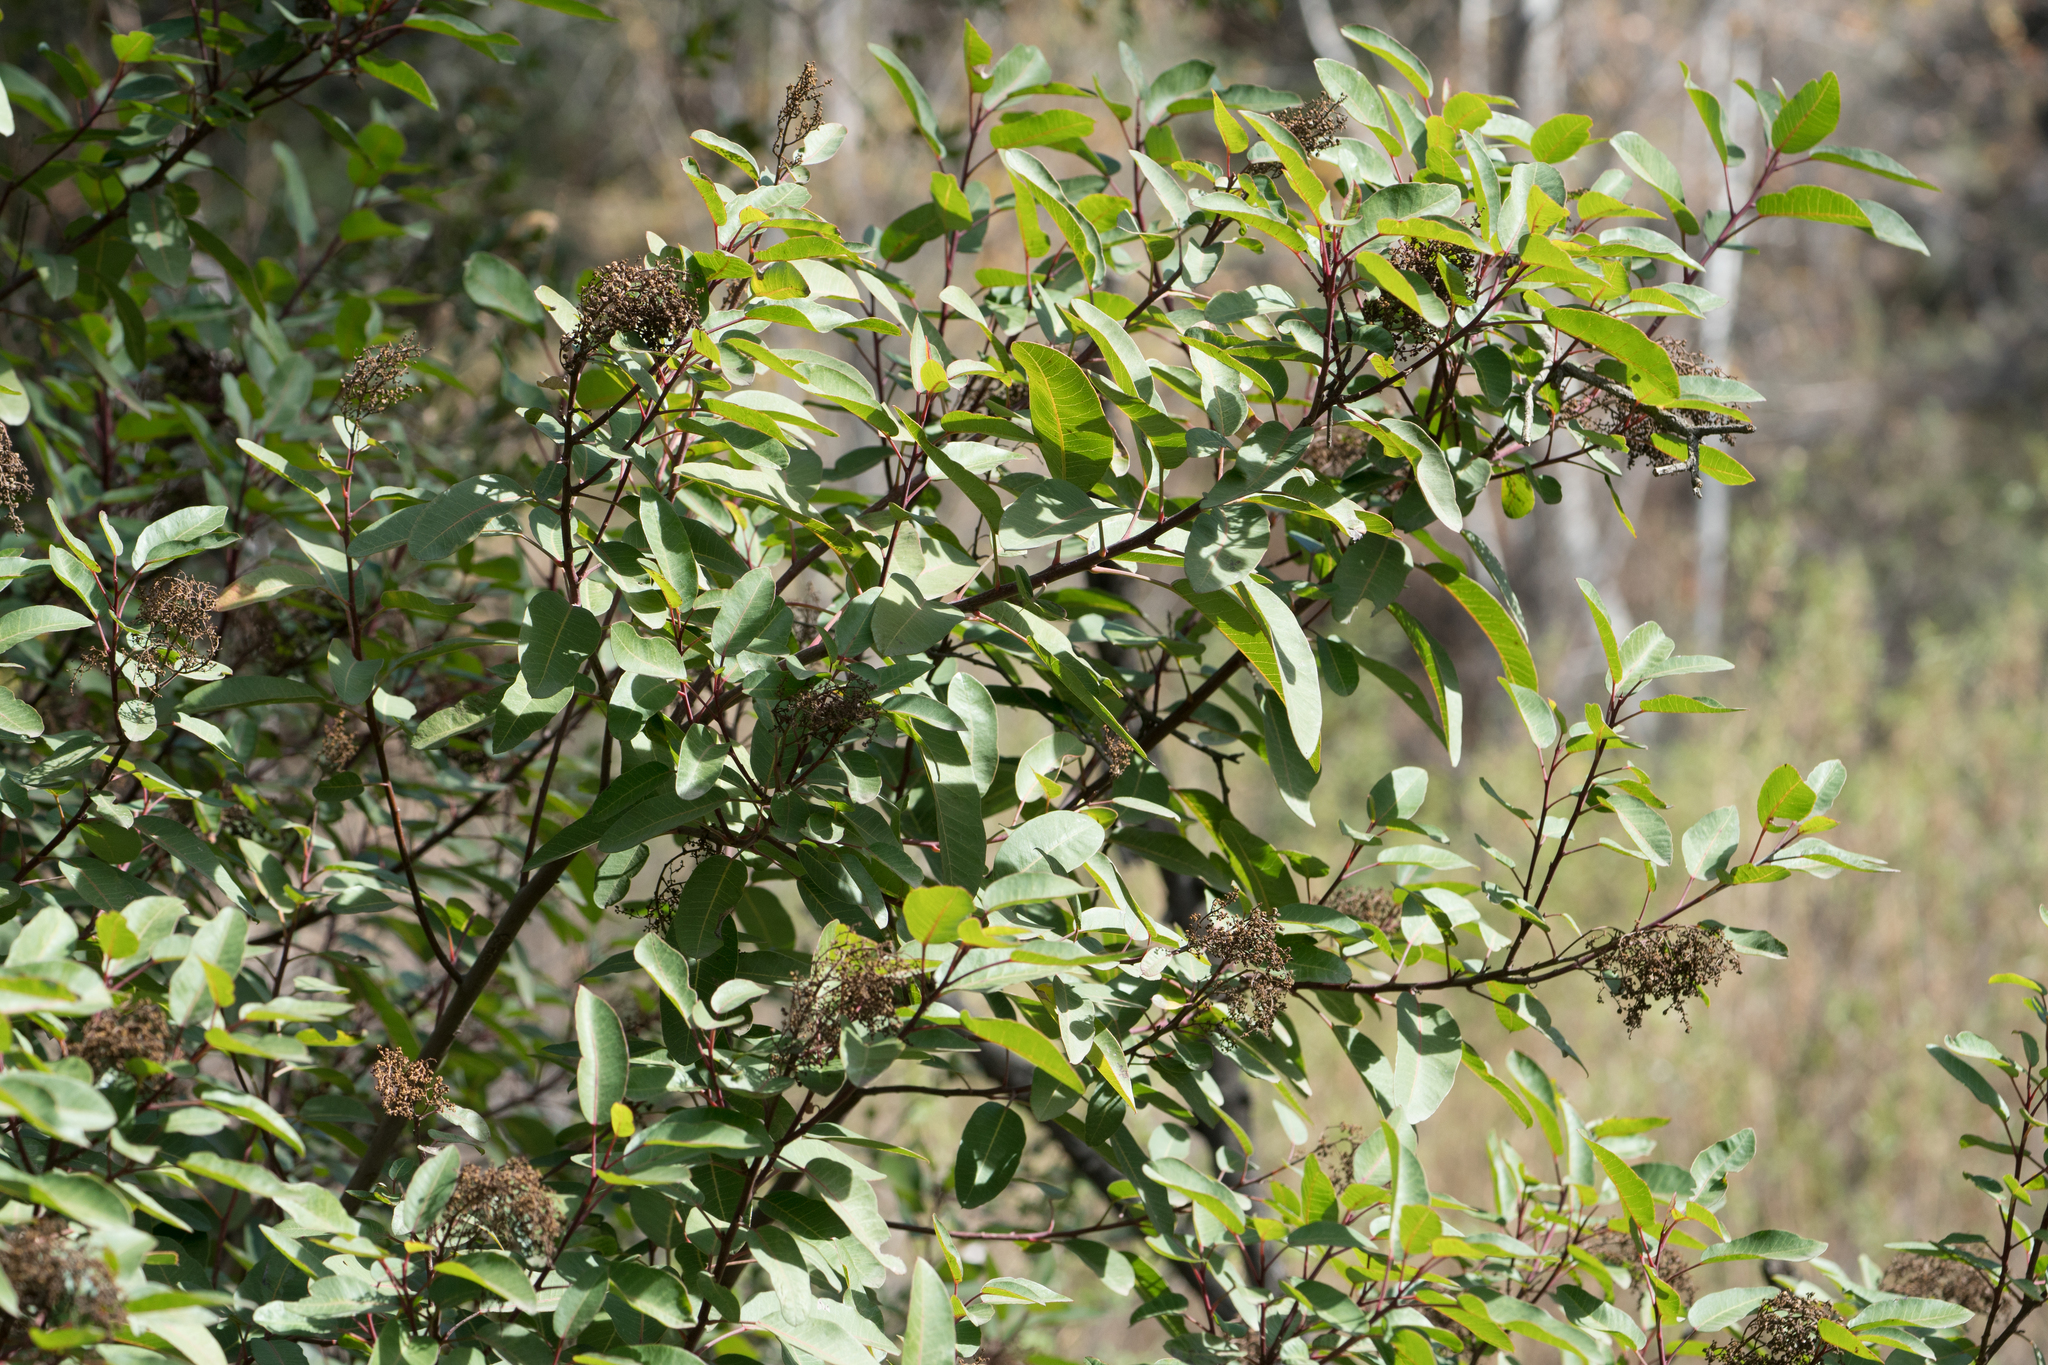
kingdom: Plantae
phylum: Tracheophyta
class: Magnoliopsida
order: Sapindales
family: Anacardiaceae
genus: Malosma
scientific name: Malosma laurina
